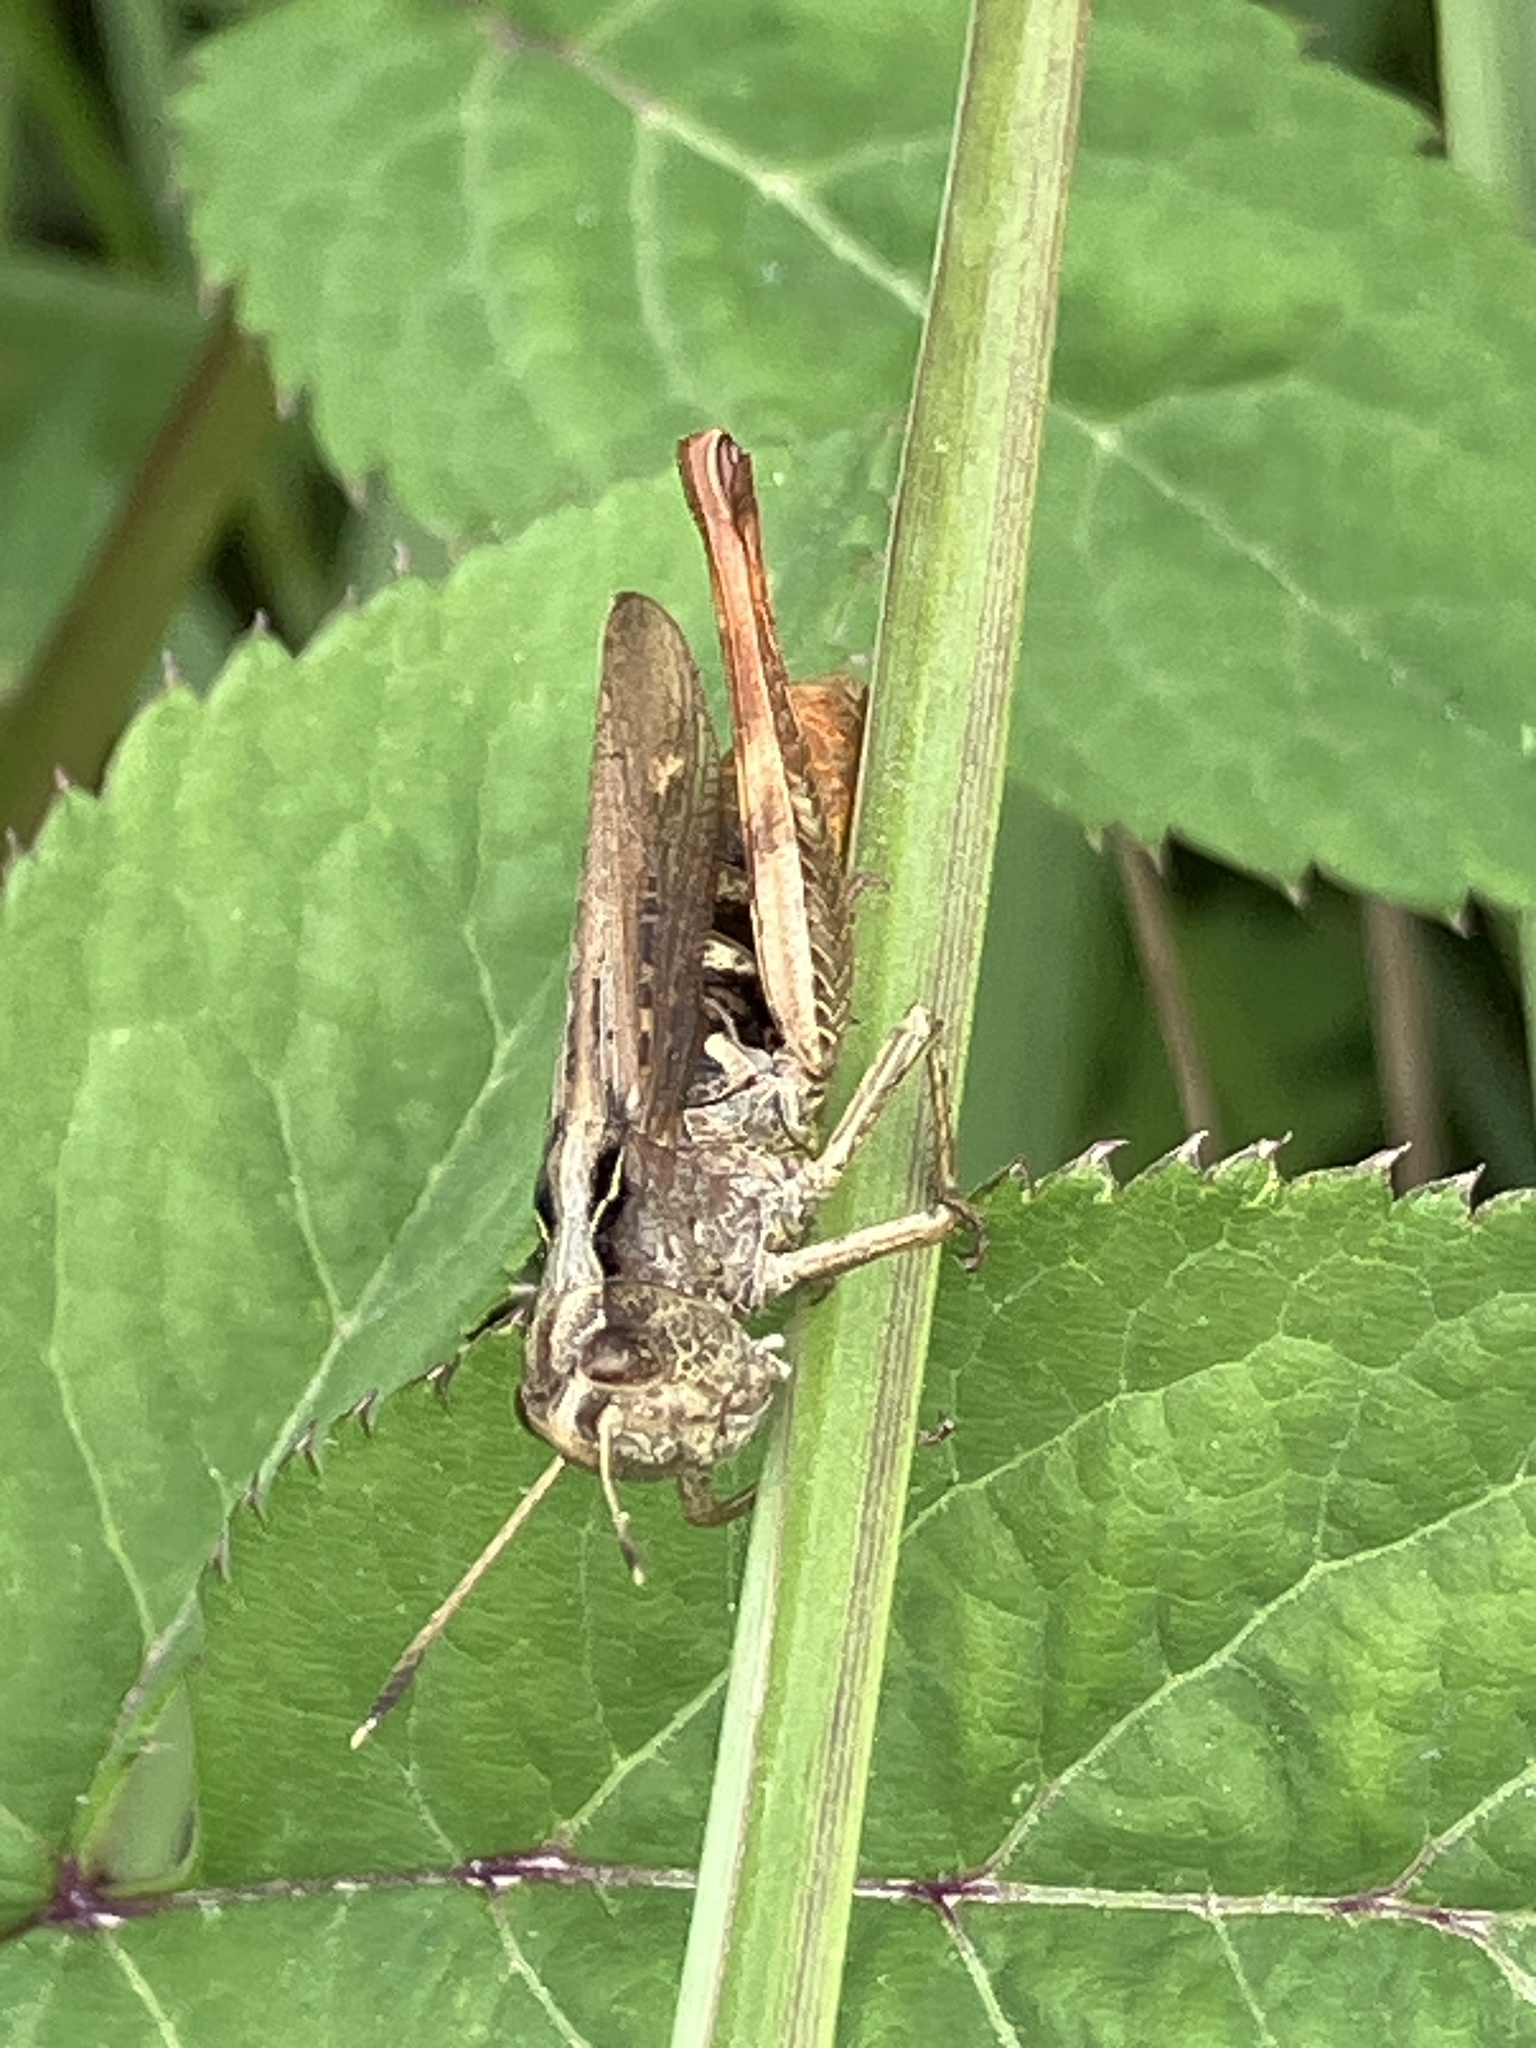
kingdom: Animalia
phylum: Arthropoda
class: Insecta
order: Orthoptera
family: Acrididae
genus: Gomphocerippus
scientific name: Gomphocerippus rufus
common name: Rufous grasshopper
